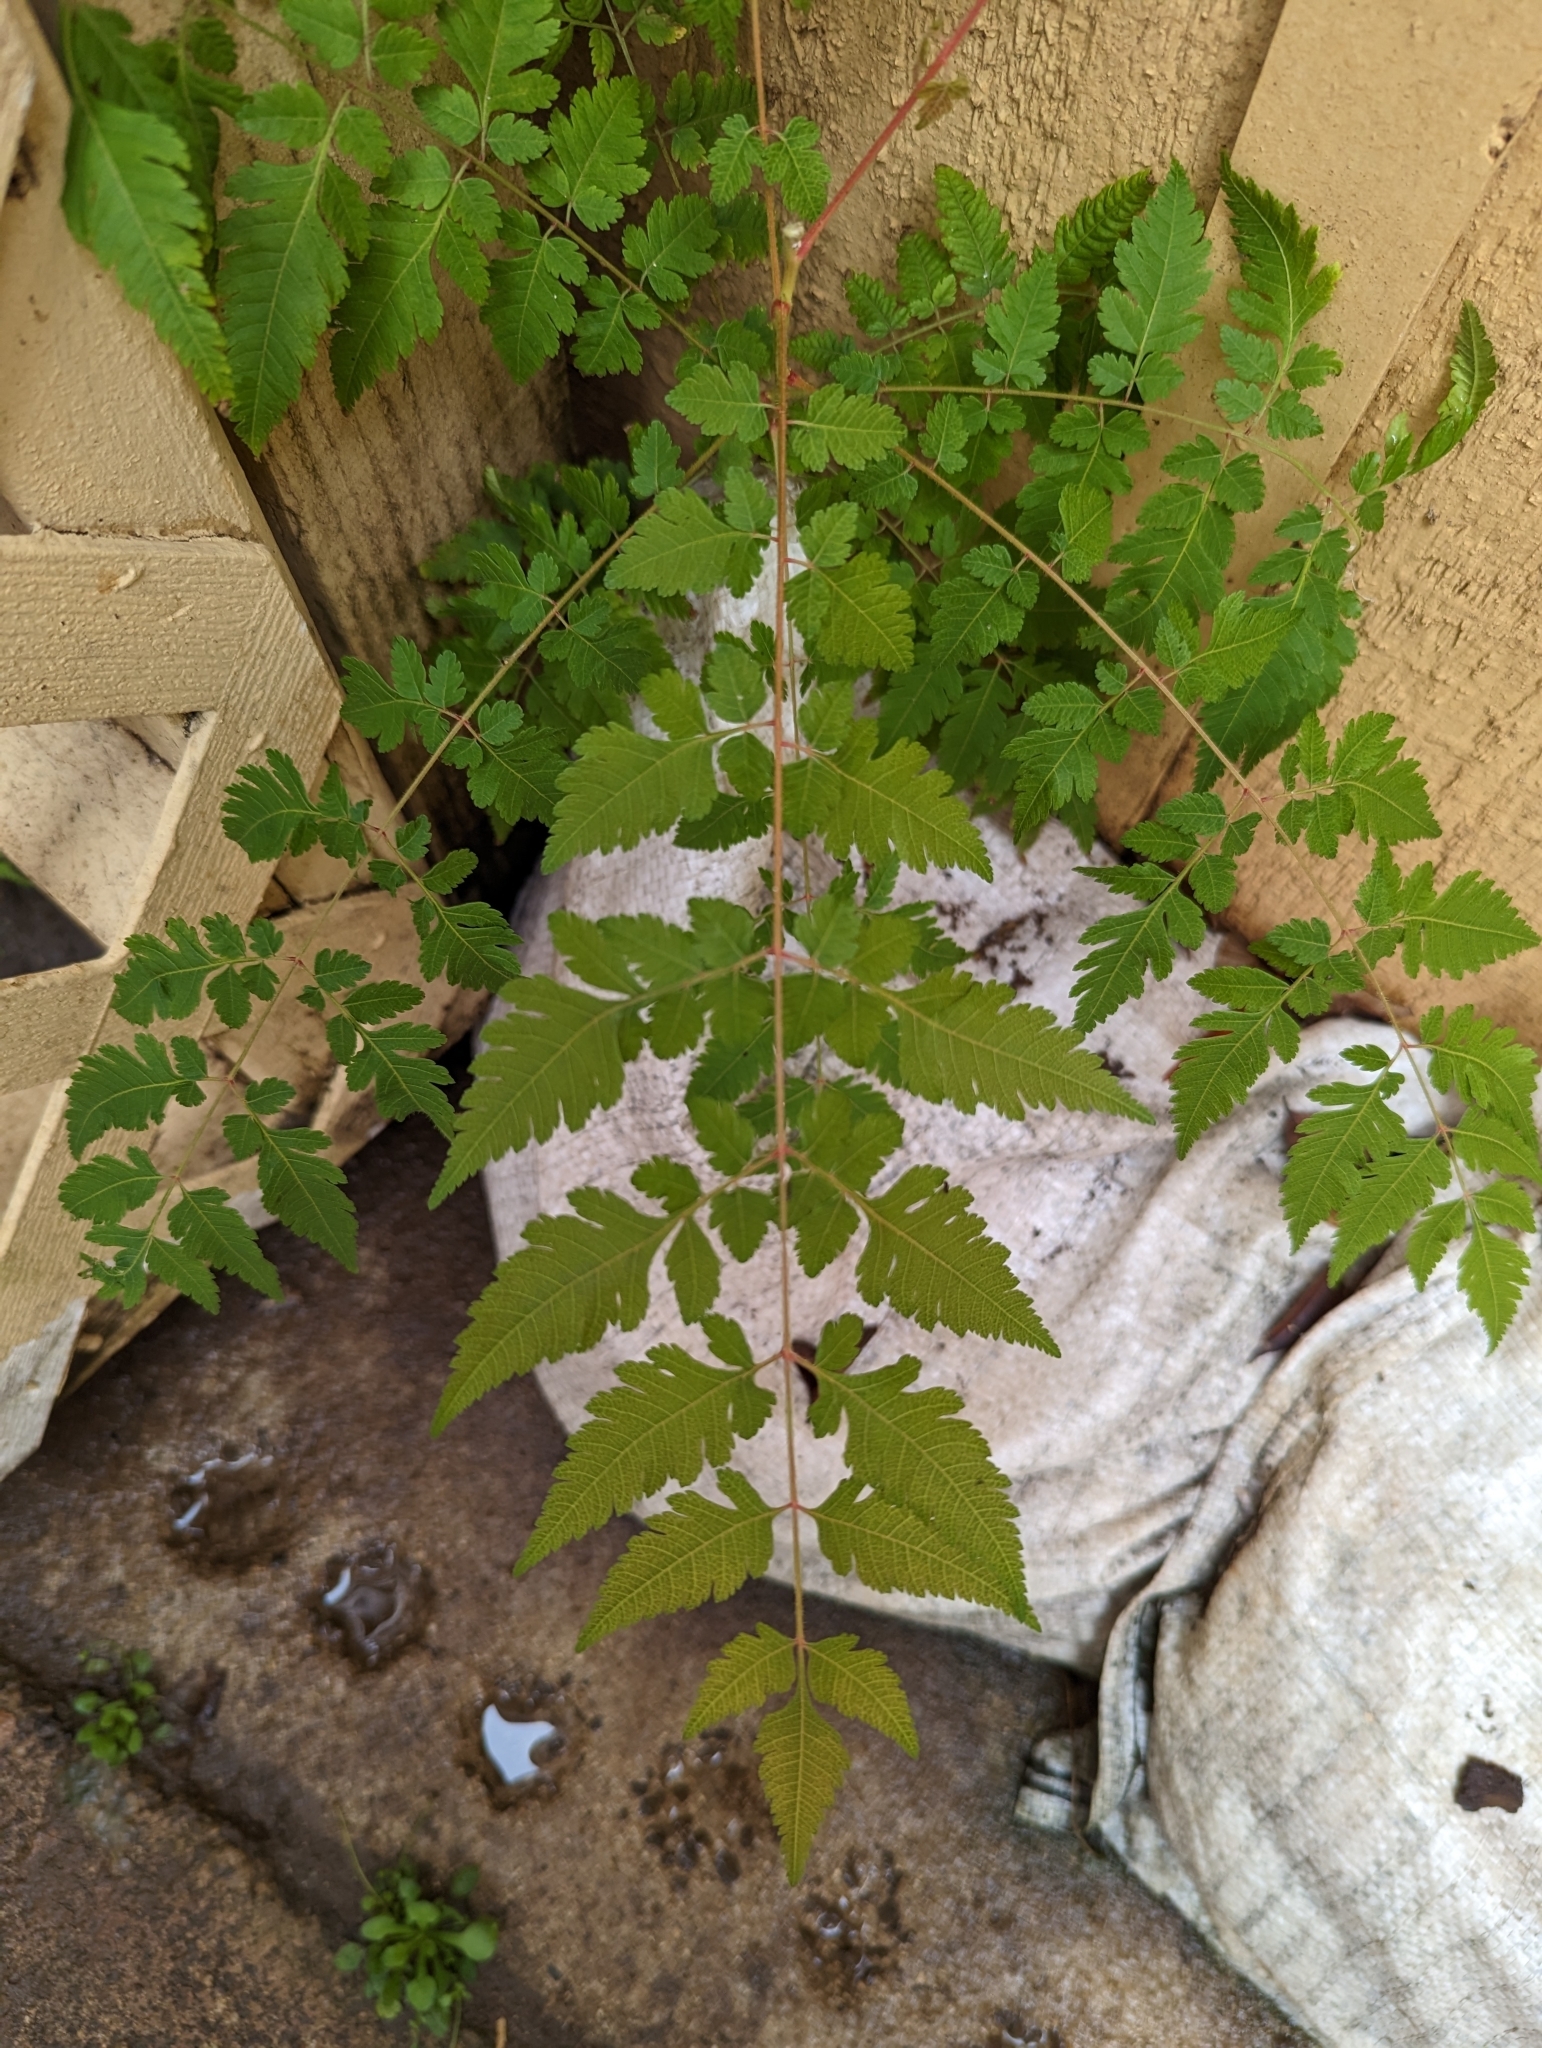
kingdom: Plantae
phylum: Tracheophyta
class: Magnoliopsida
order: Sapindales
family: Sapindaceae
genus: Koelreuteria
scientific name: Koelreuteria elegans
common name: Chinese flame tree
